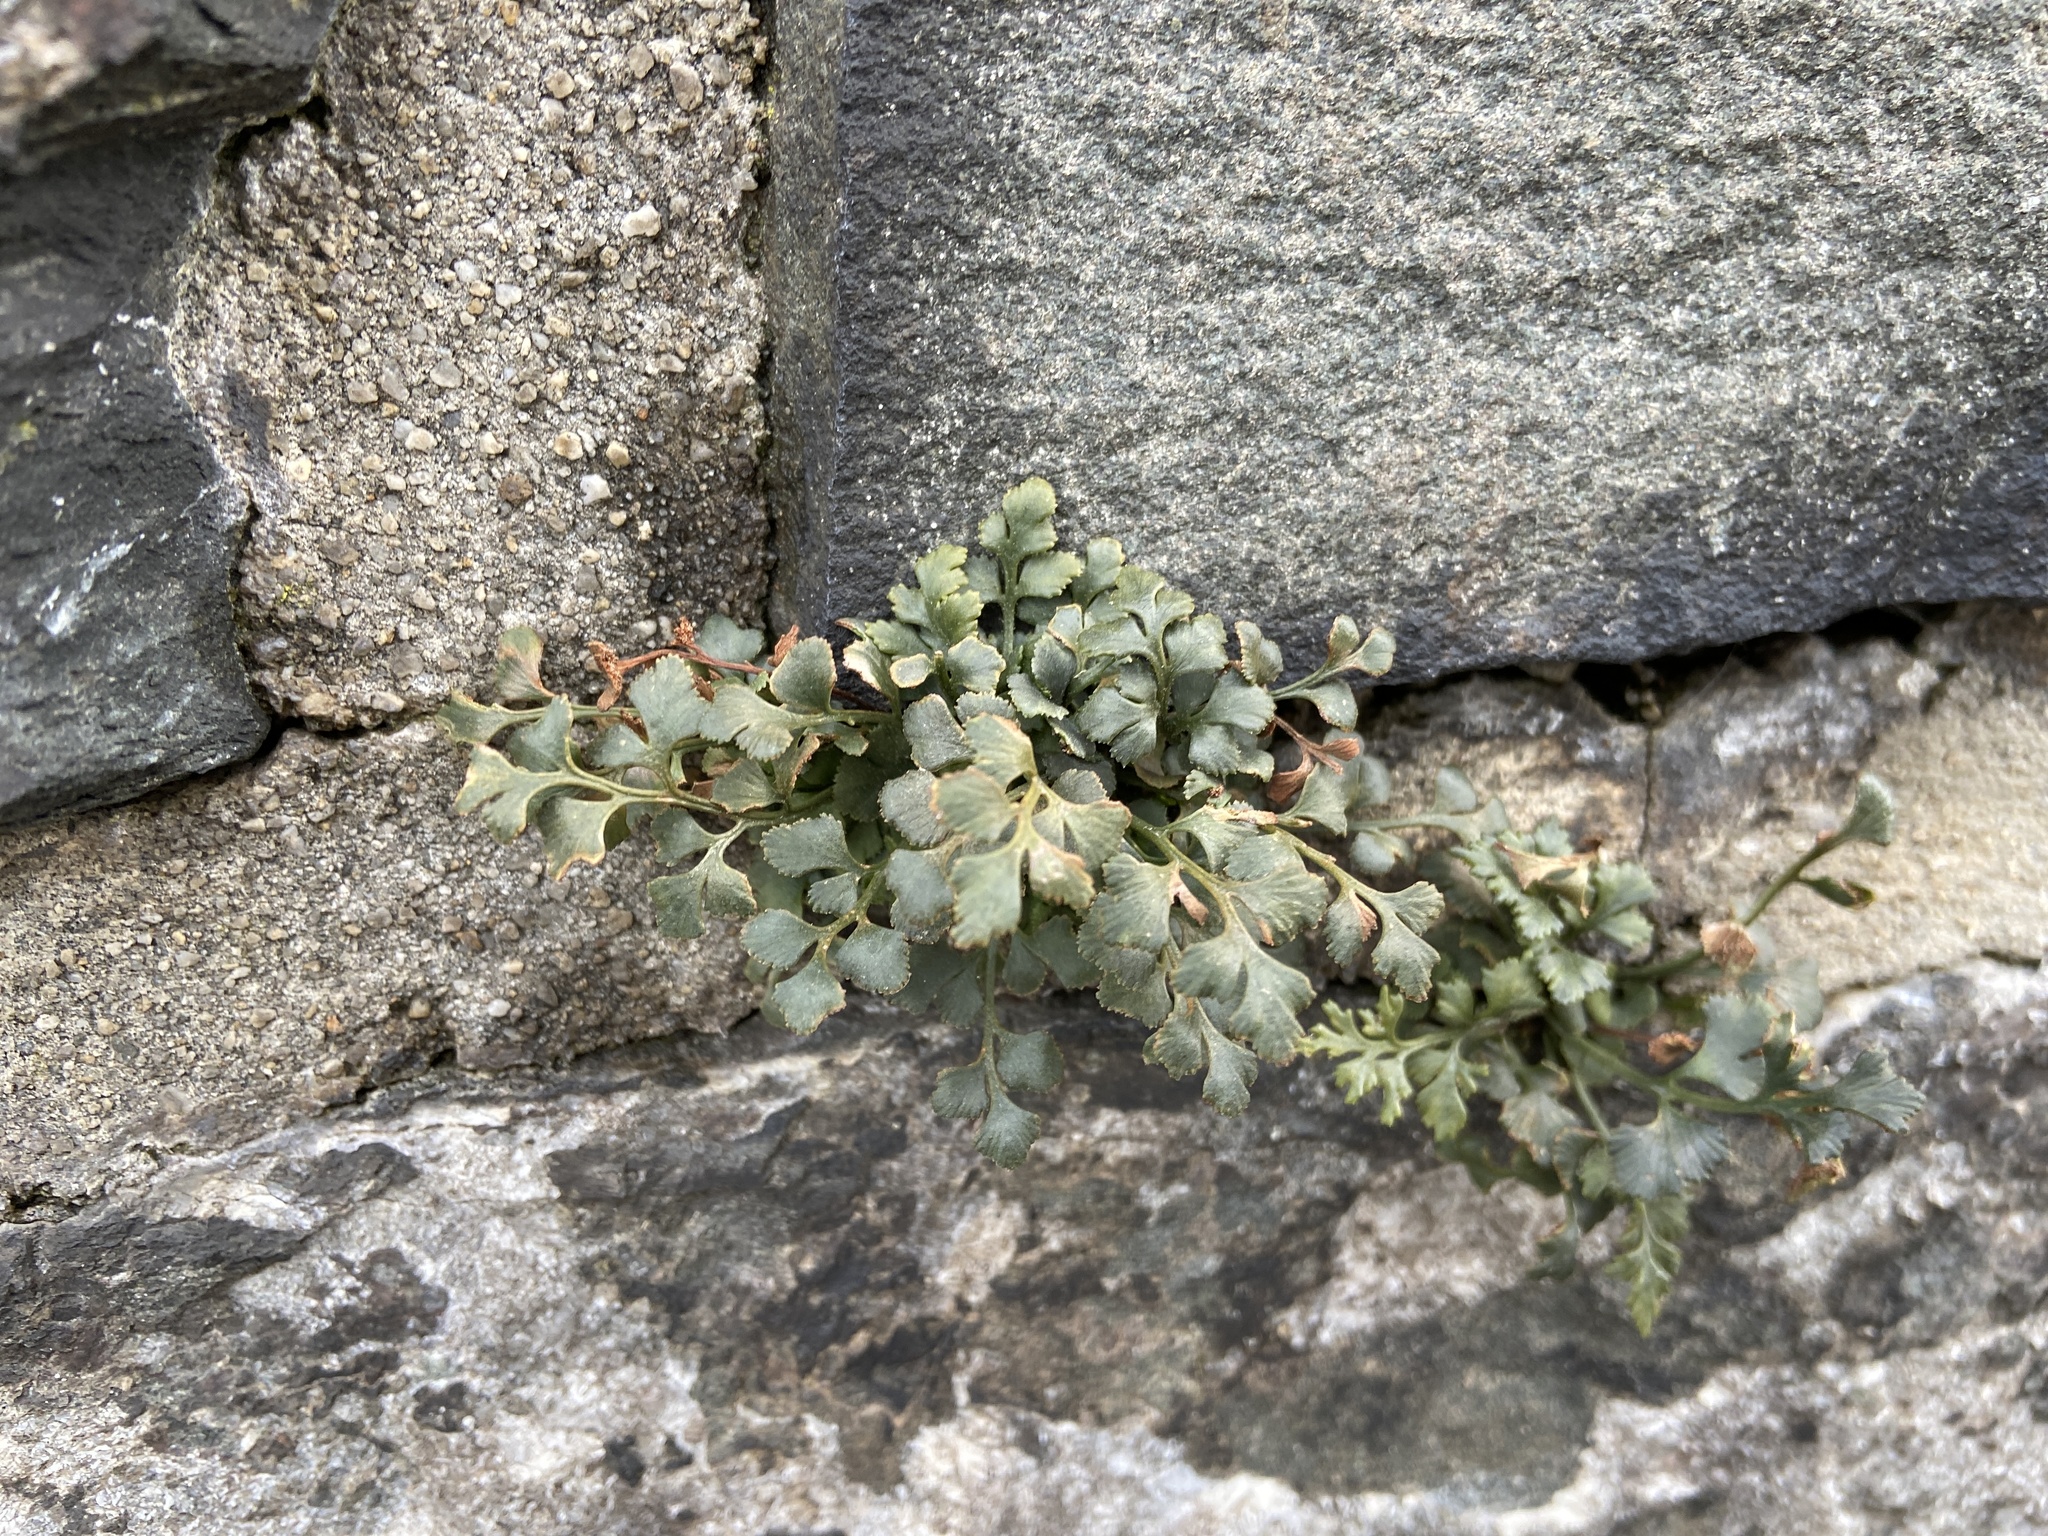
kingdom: Plantae
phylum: Tracheophyta
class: Polypodiopsida
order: Polypodiales
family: Aspleniaceae
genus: Asplenium
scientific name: Asplenium ruta-muraria
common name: Wall-rue
